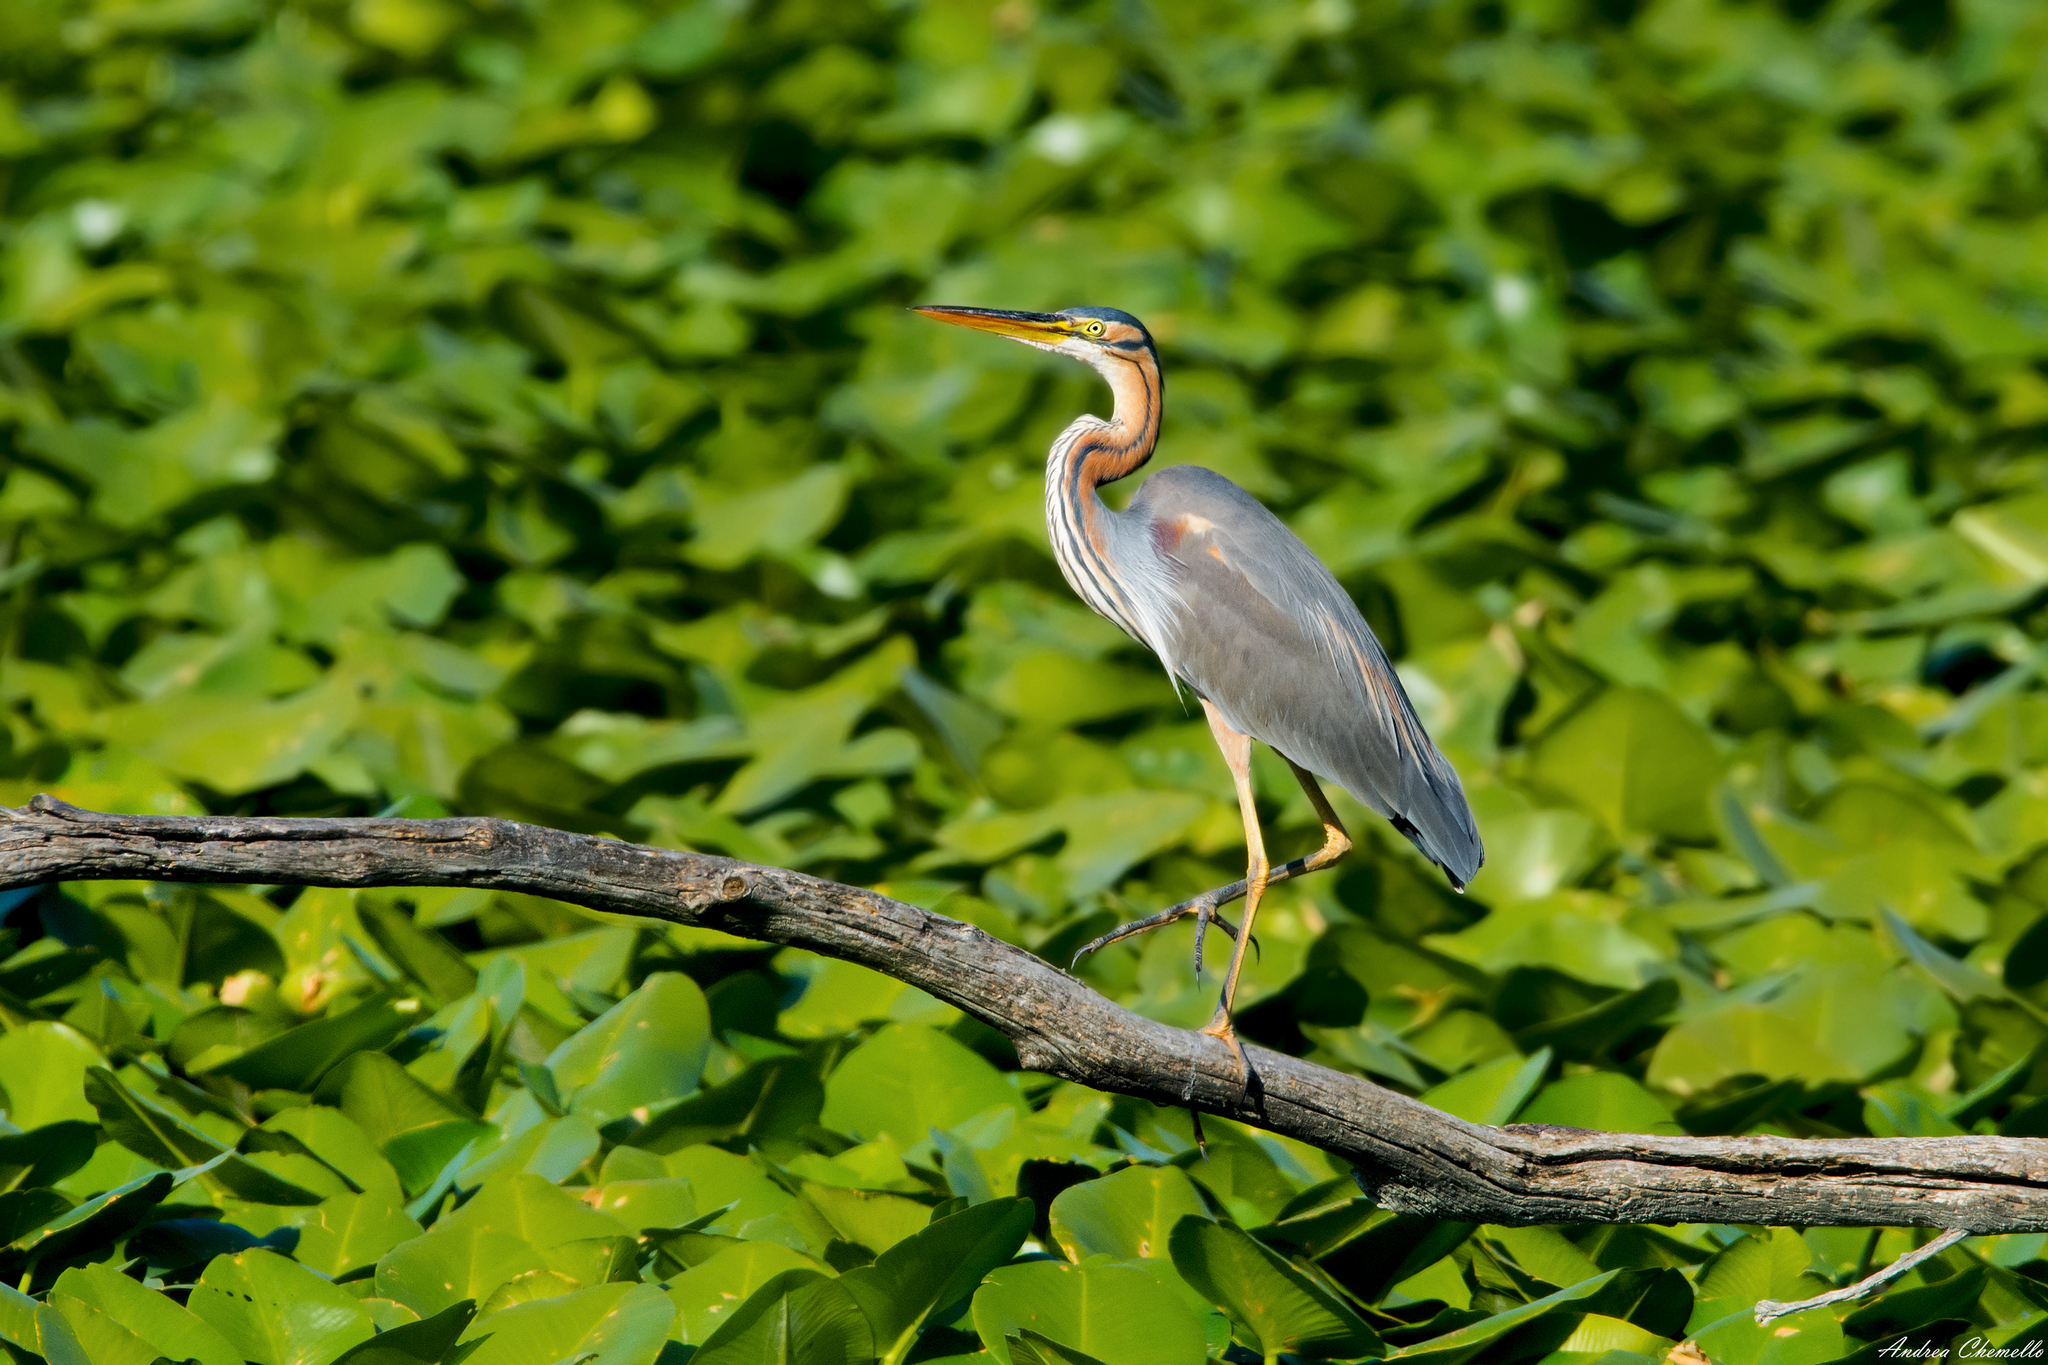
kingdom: Animalia
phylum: Chordata
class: Aves
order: Pelecaniformes
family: Ardeidae
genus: Ardea
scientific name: Ardea purpurea
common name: Purple heron
